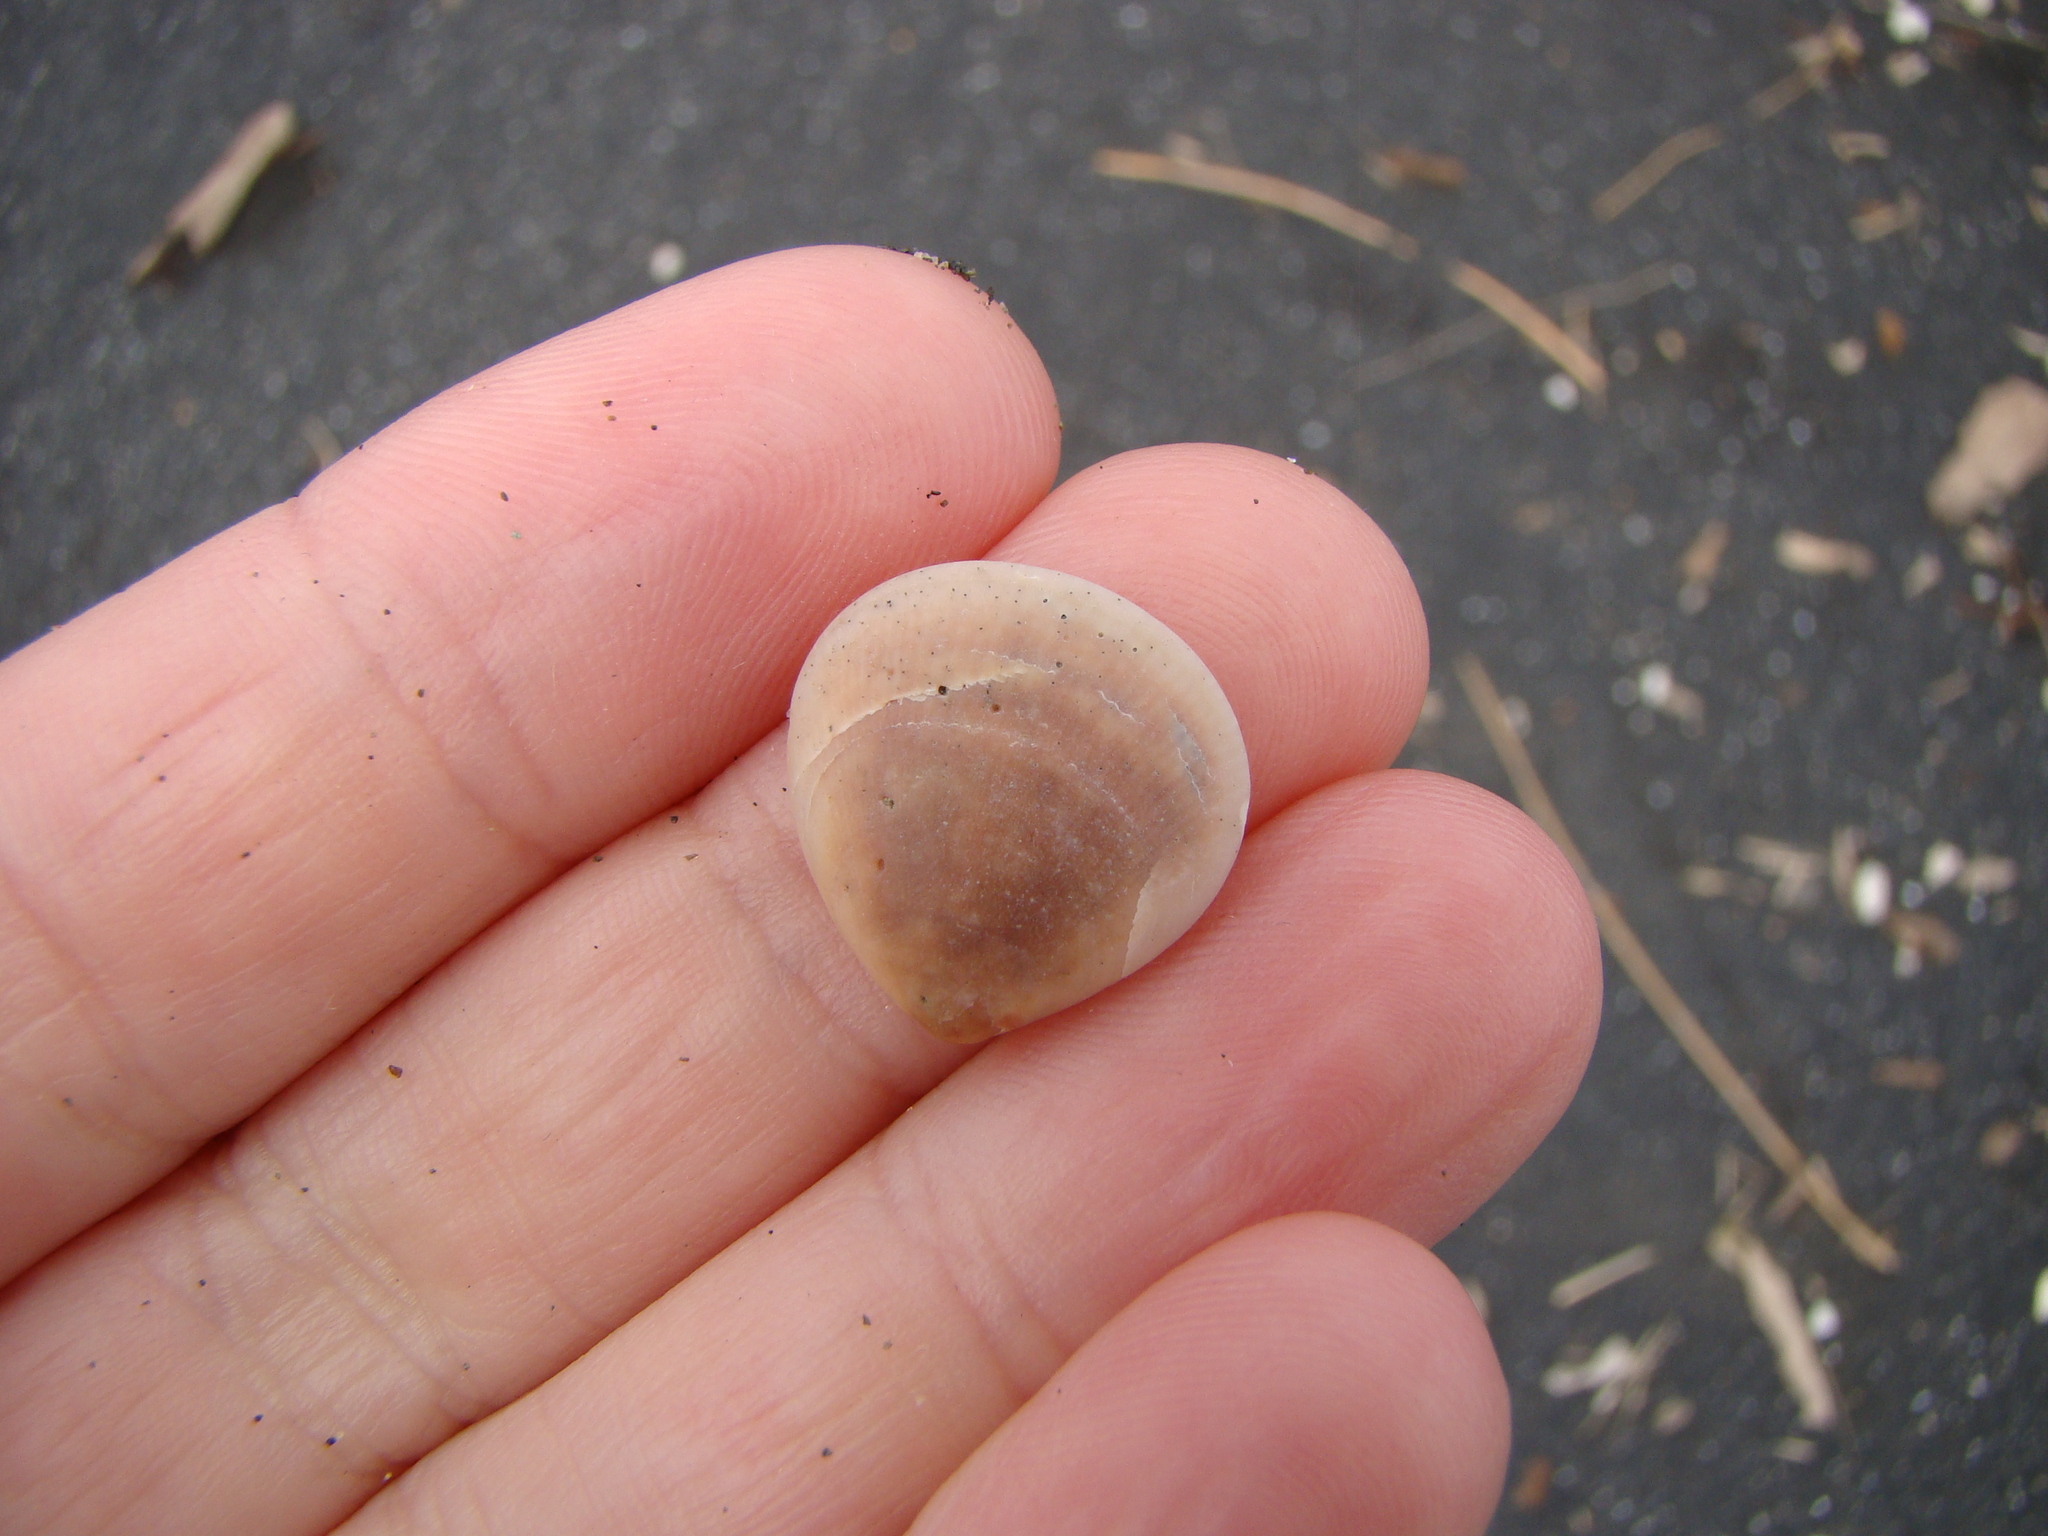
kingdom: Animalia
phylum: Mollusca
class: Bivalvia
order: Arcida
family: Glycymerididae
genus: Glycymeris
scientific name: Glycymeris modesta
